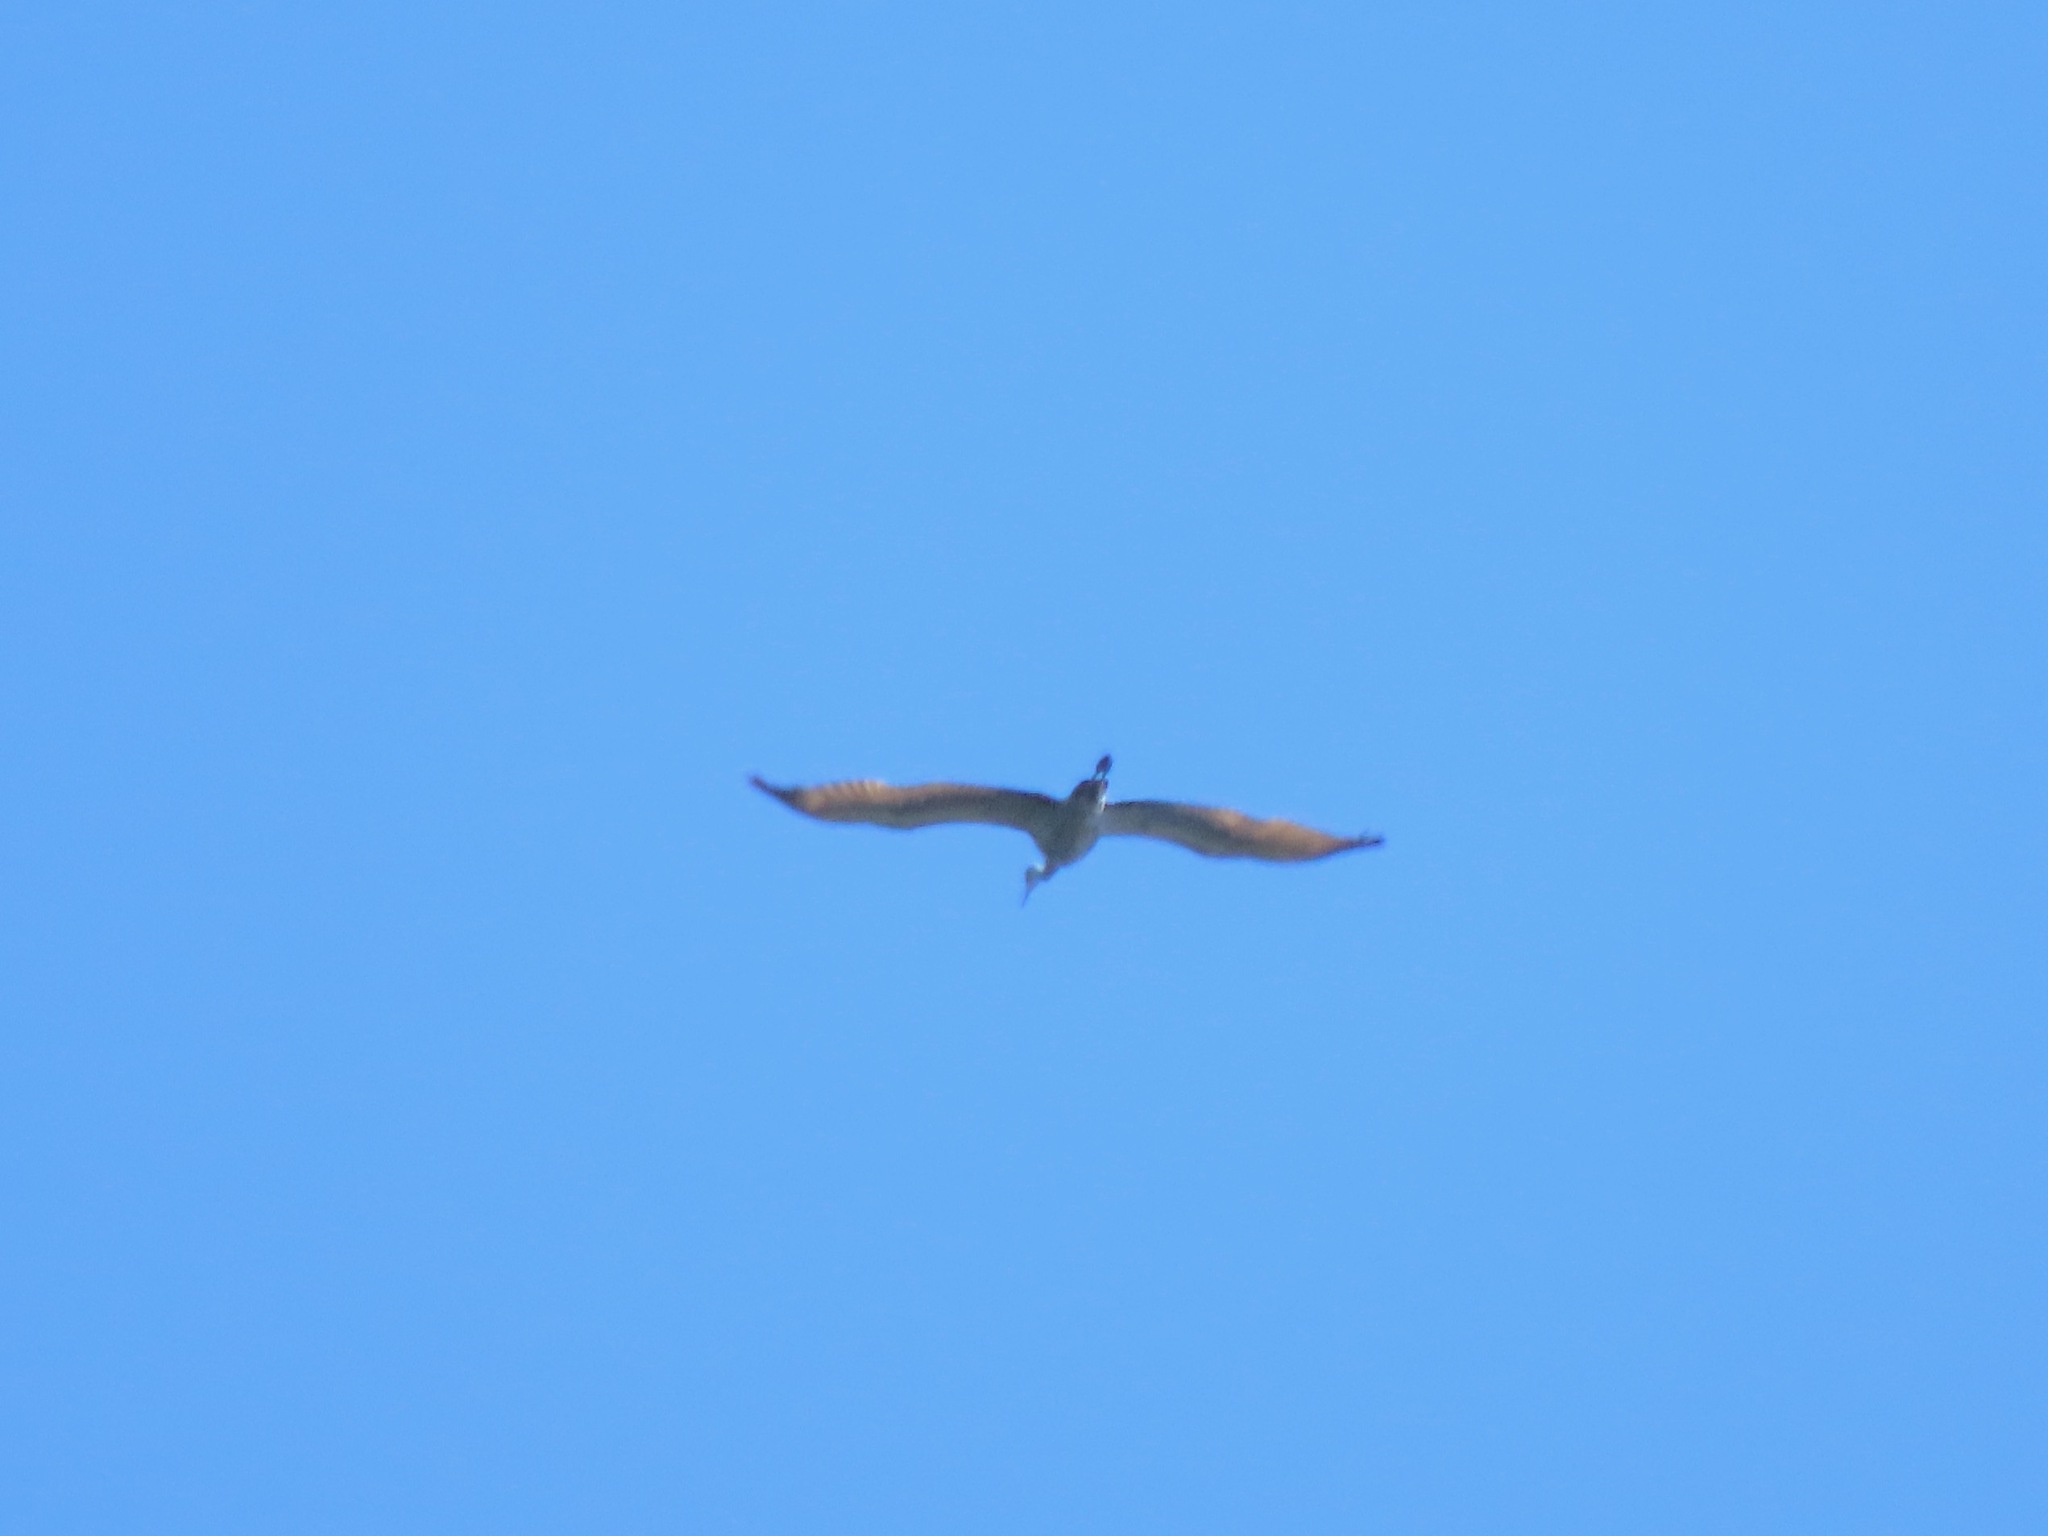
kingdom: Animalia
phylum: Chordata
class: Aves
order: Gruiformes
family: Gruidae
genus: Grus
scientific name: Grus canadensis
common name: Sandhill crane
